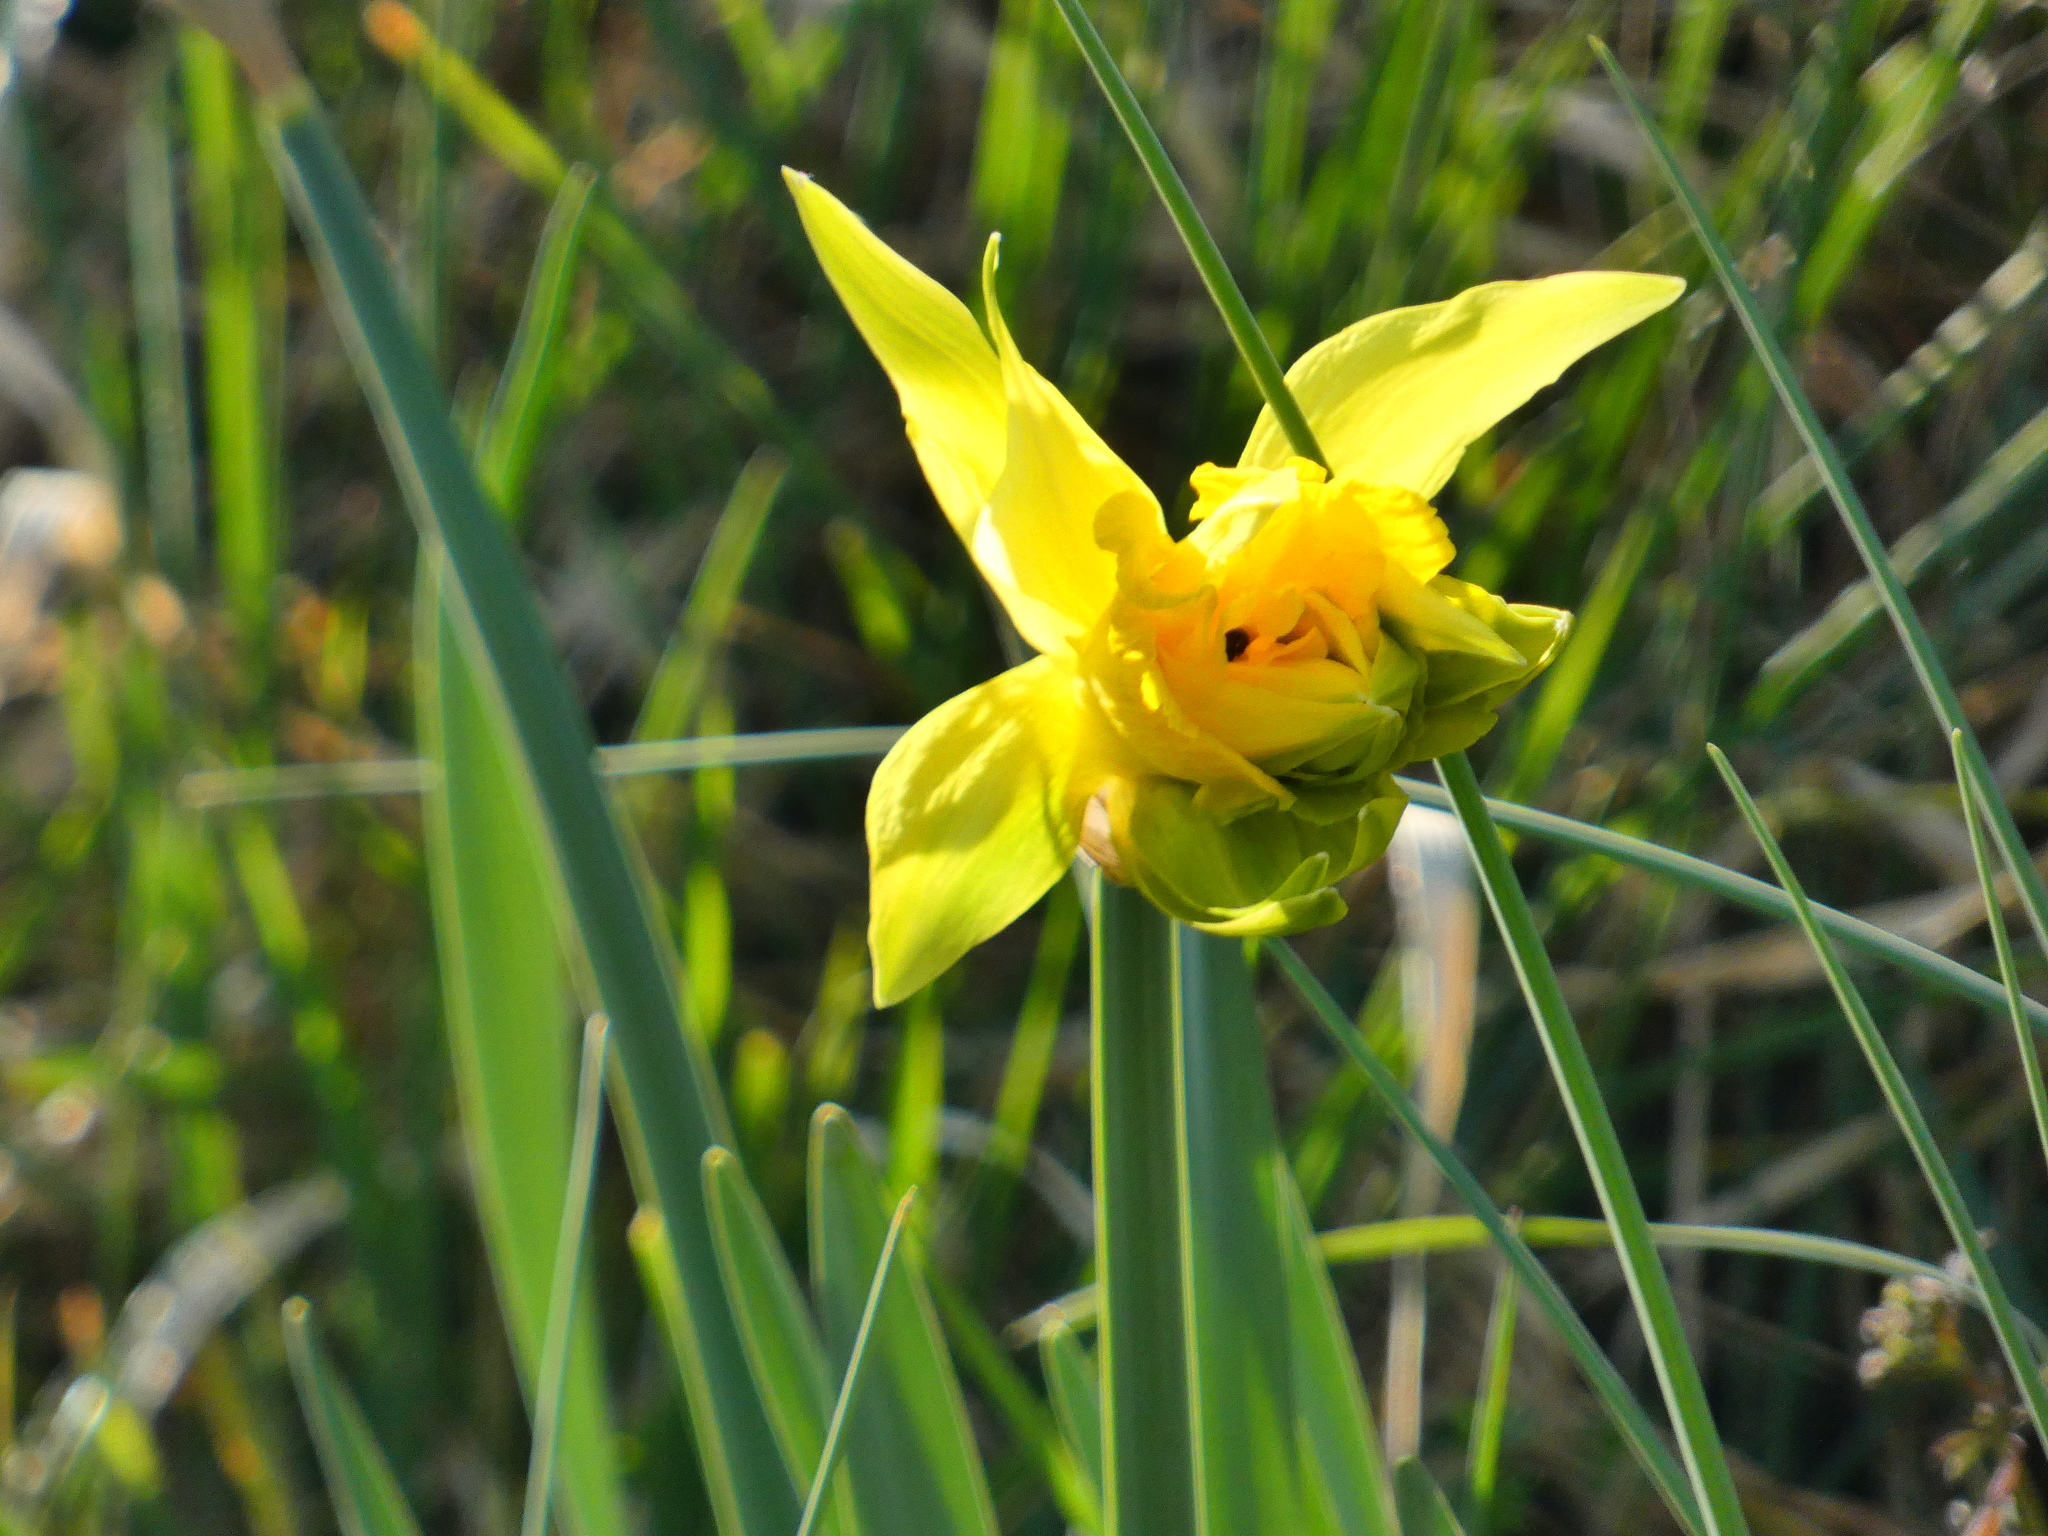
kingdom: Plantae
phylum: Tracheophyta
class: Liliopsida
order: Asparagales
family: Amaryllidaceae
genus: Narcissus
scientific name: Narcissus pseudonarcissus
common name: Daffodil
